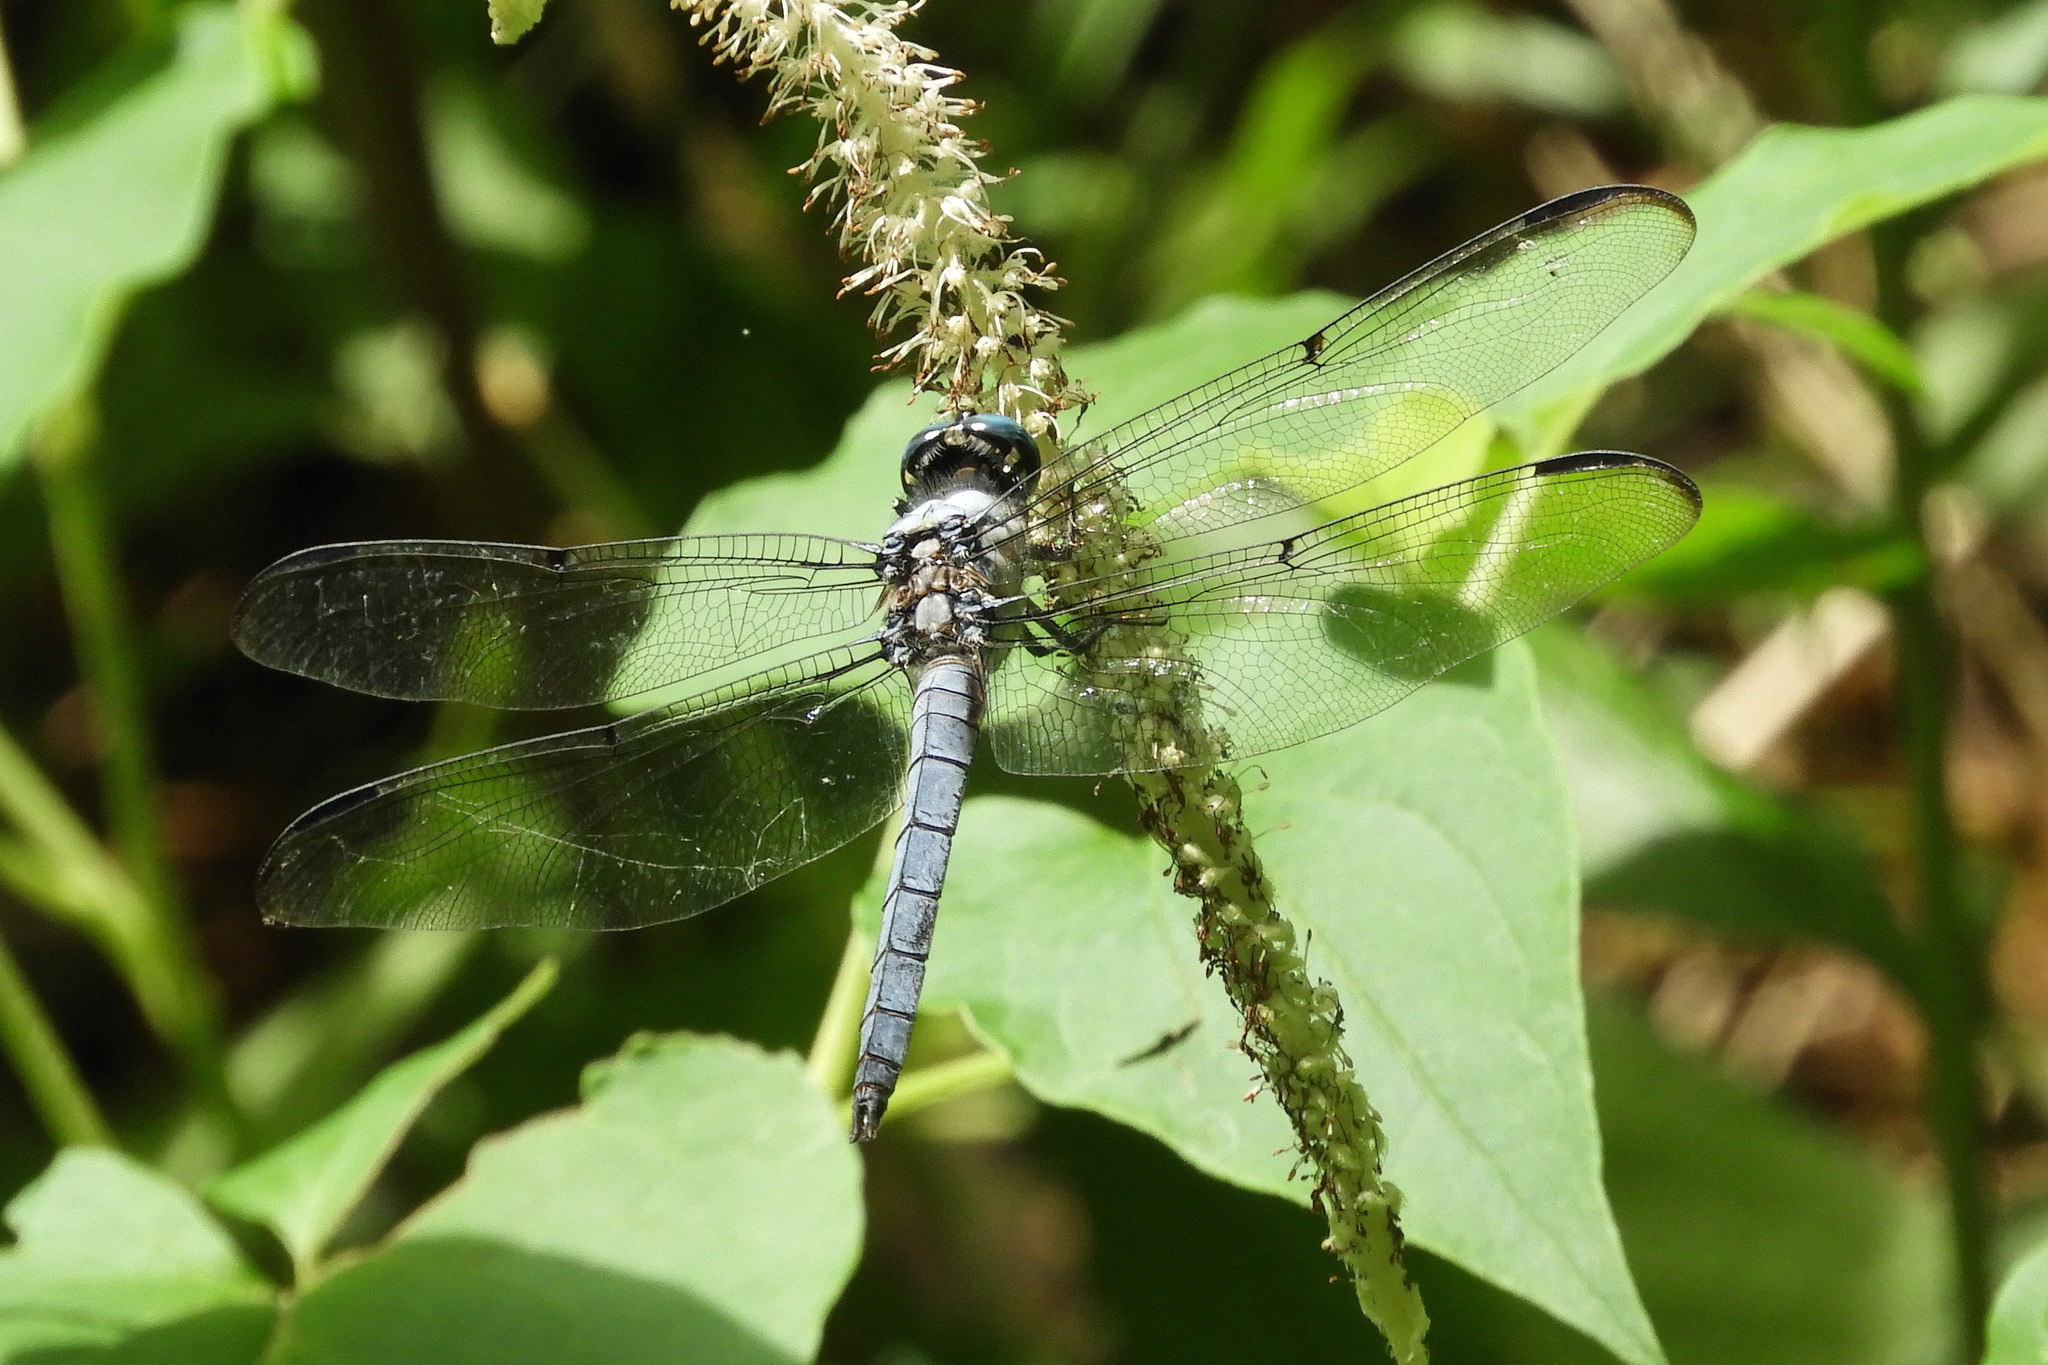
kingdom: Animalia
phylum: Arthropoda
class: Insecta
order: Odonata
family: Libellulidae
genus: Libellula
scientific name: Libellula vibrans
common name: Great blue skimmer
